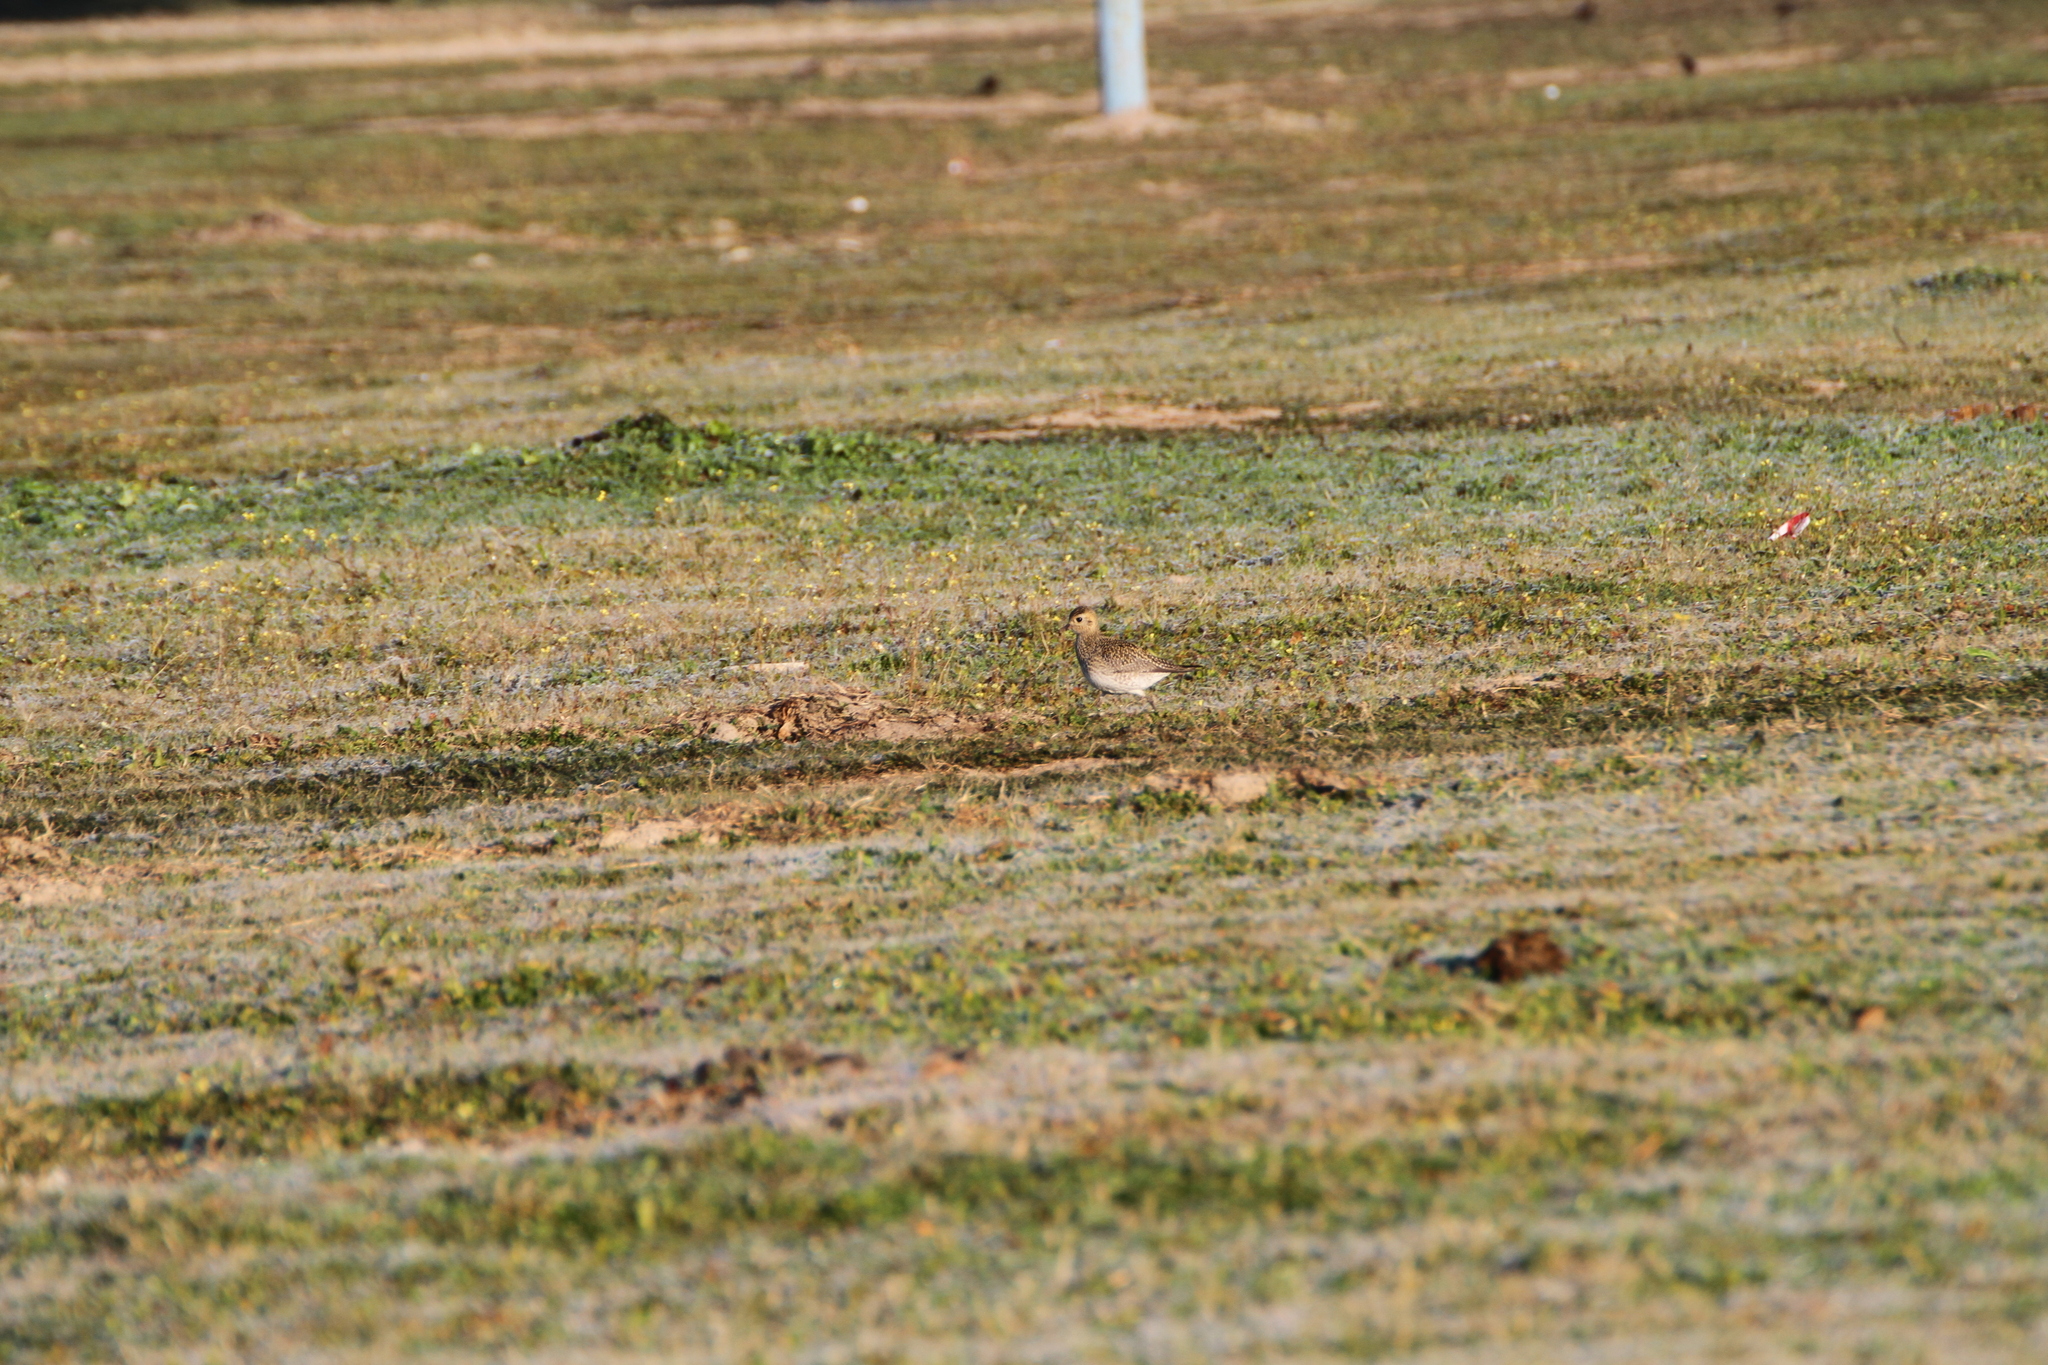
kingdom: Animalia
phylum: Chordata
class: Aves
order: Charadriiformes
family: Charadriidae
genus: Pluvialis
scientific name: Pluvialis apricaria
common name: European golden plover
